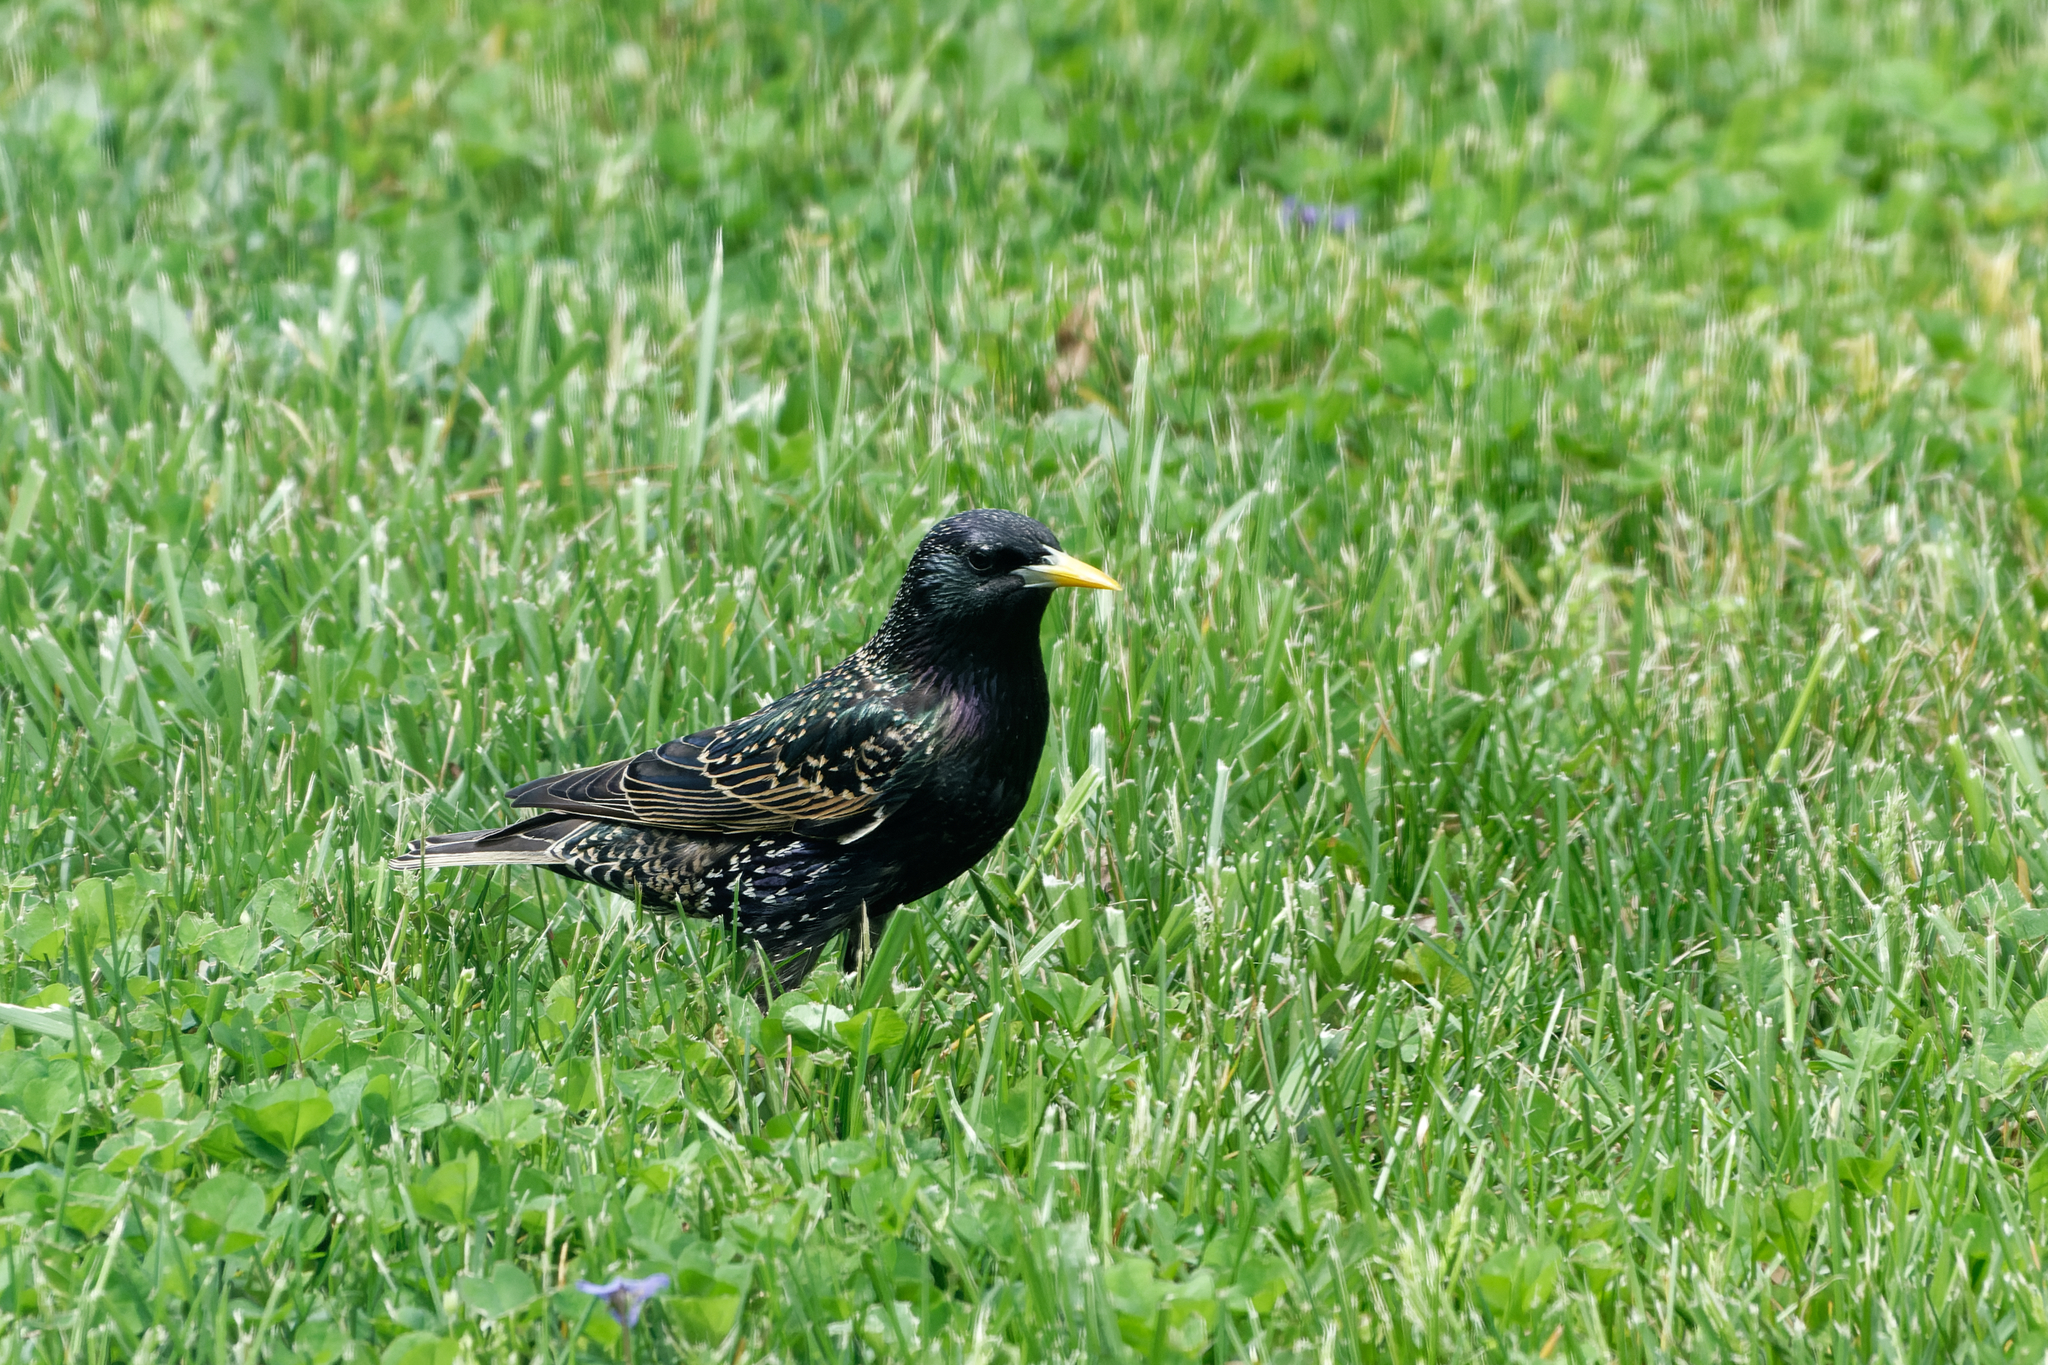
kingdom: Animalia
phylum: Chordata
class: Aves
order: Passeriformes
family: Sturnidae
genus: Sturnus
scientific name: Sturnus vulgaris
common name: Common starling
